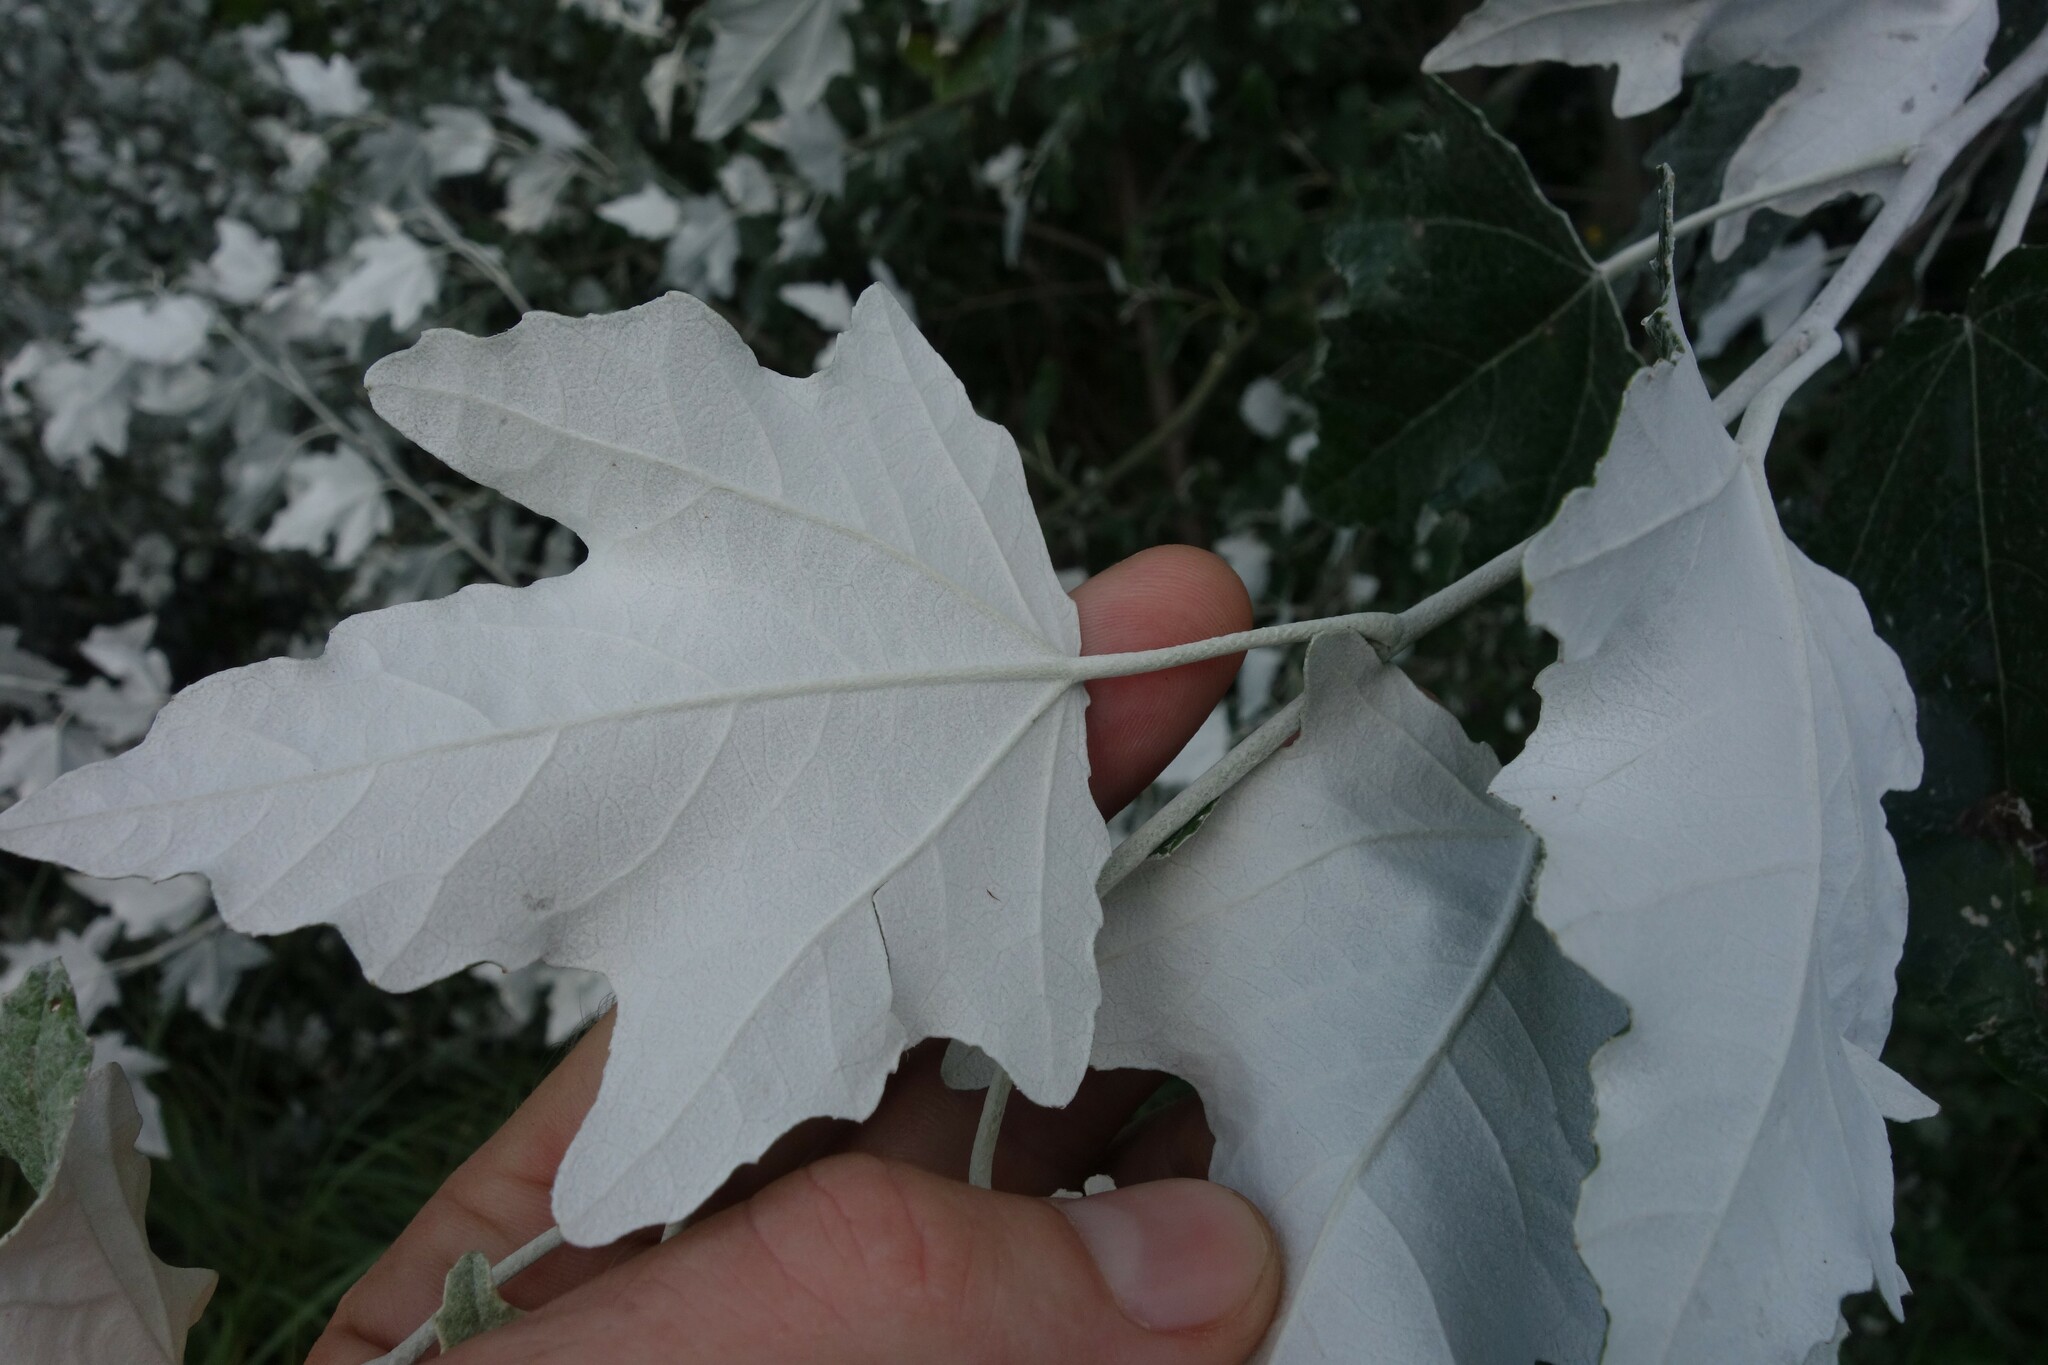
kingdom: Plantae
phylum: Tracheophyta
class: Magnoliopsida
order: Malpighiales
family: Salicaceae
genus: Populus
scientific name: Populus alba
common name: White poplar
